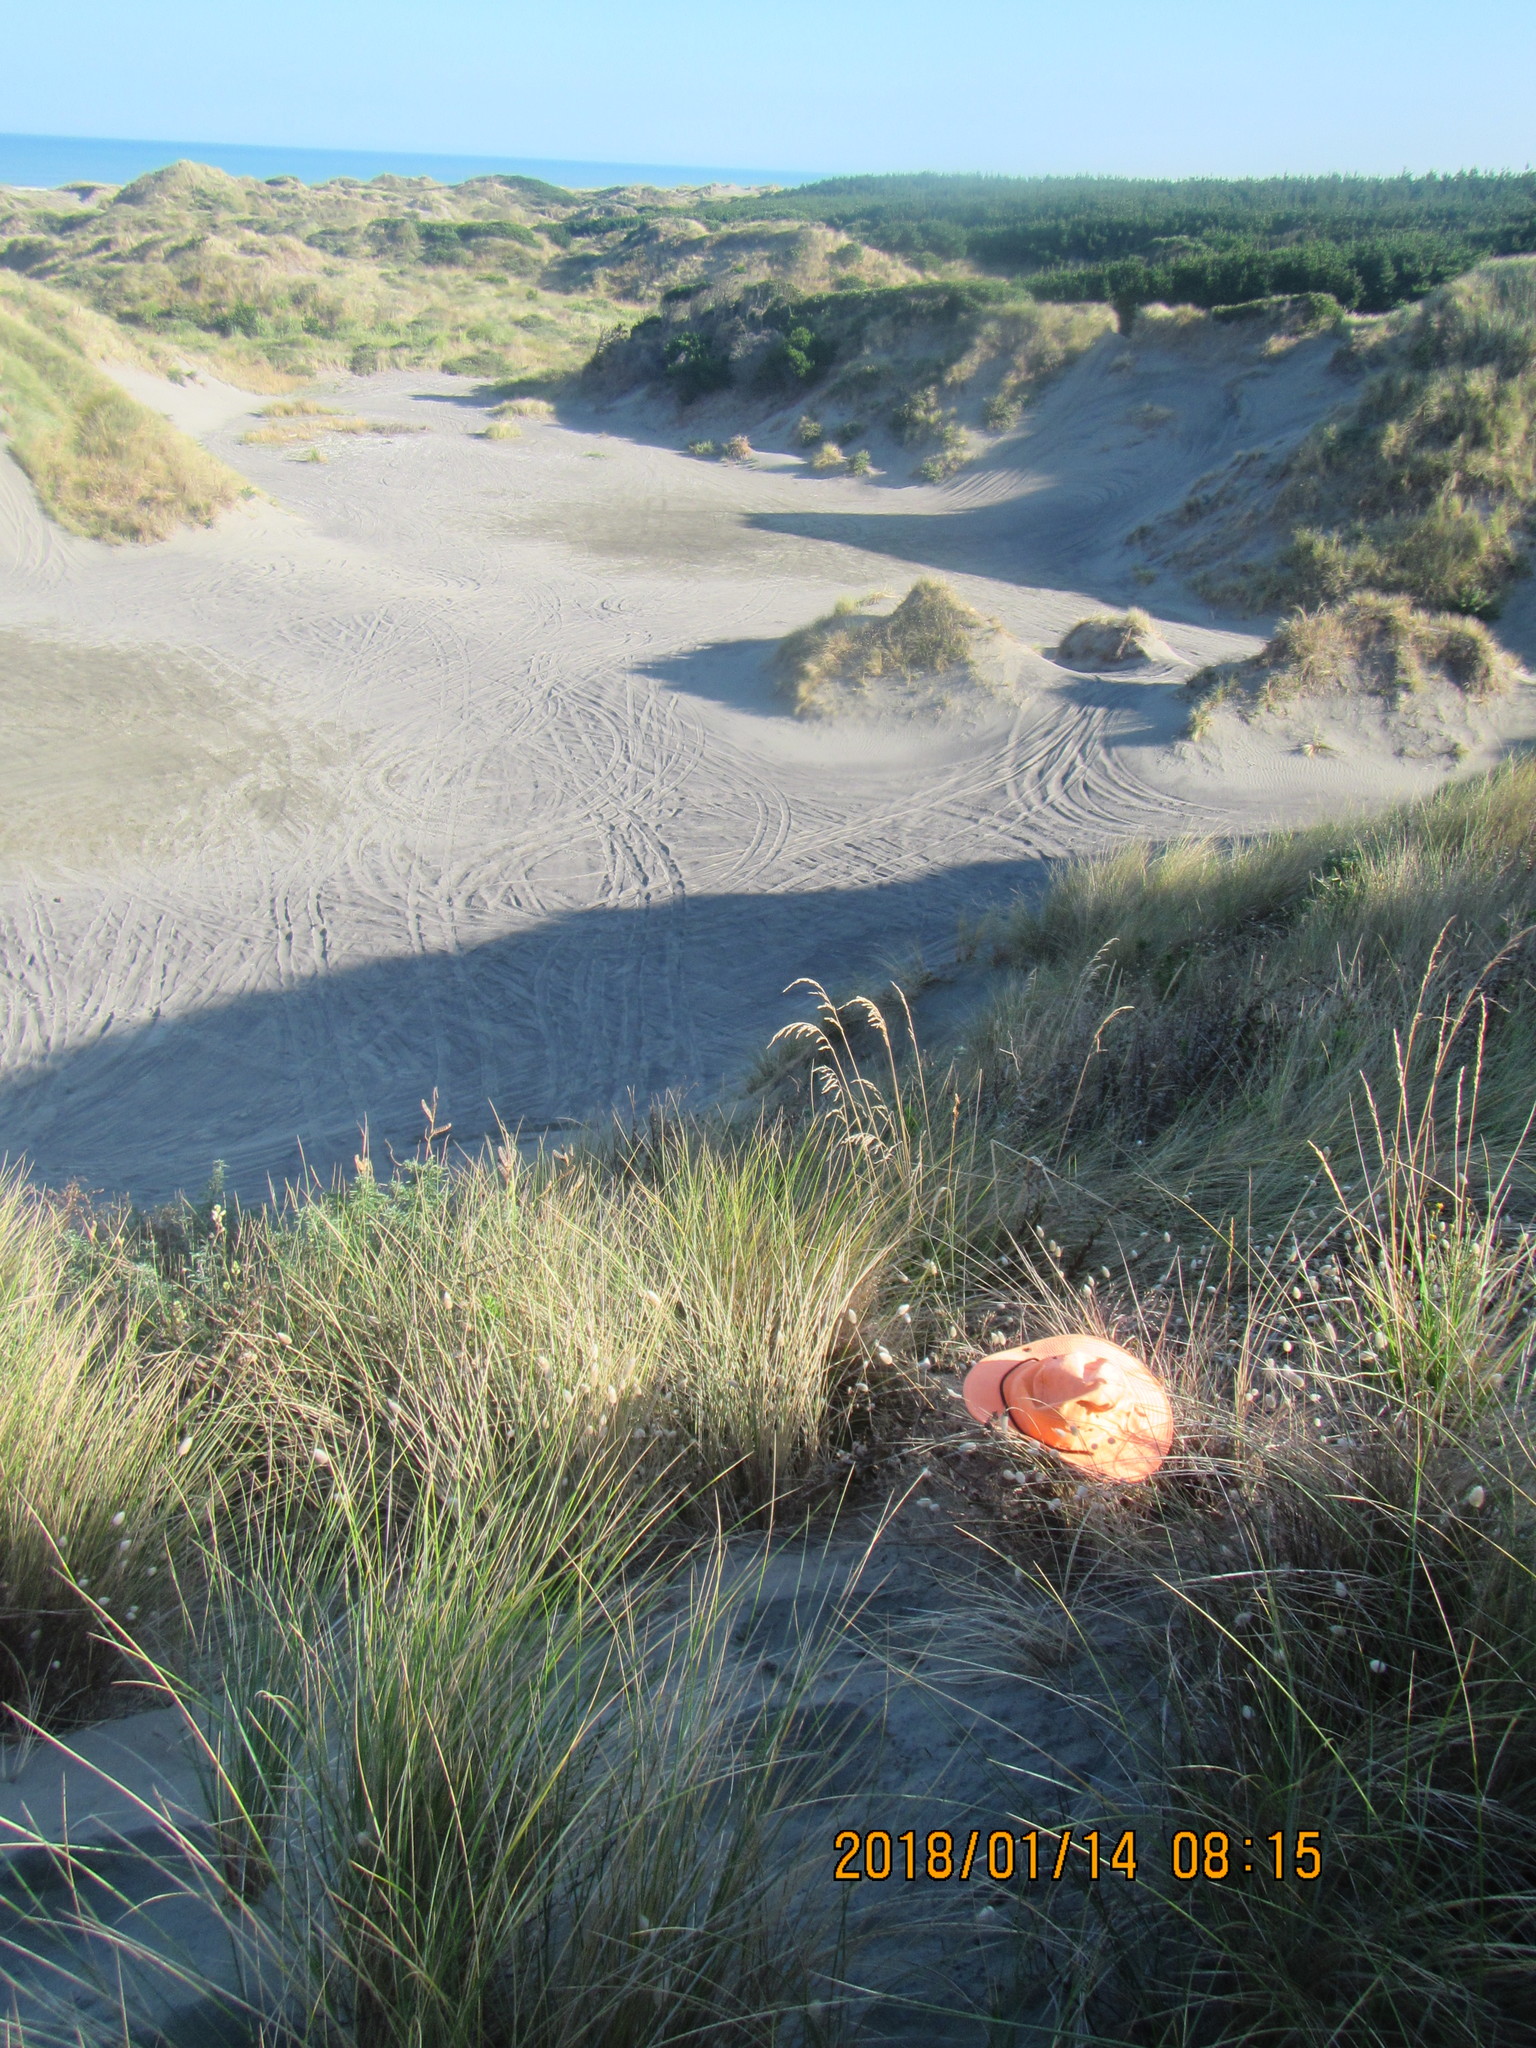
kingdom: Plantae
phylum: Tracheophyta
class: Liliopsida
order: Poales
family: Poaceae
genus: Lachnagrostis
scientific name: Lachnagrostis billardierei
